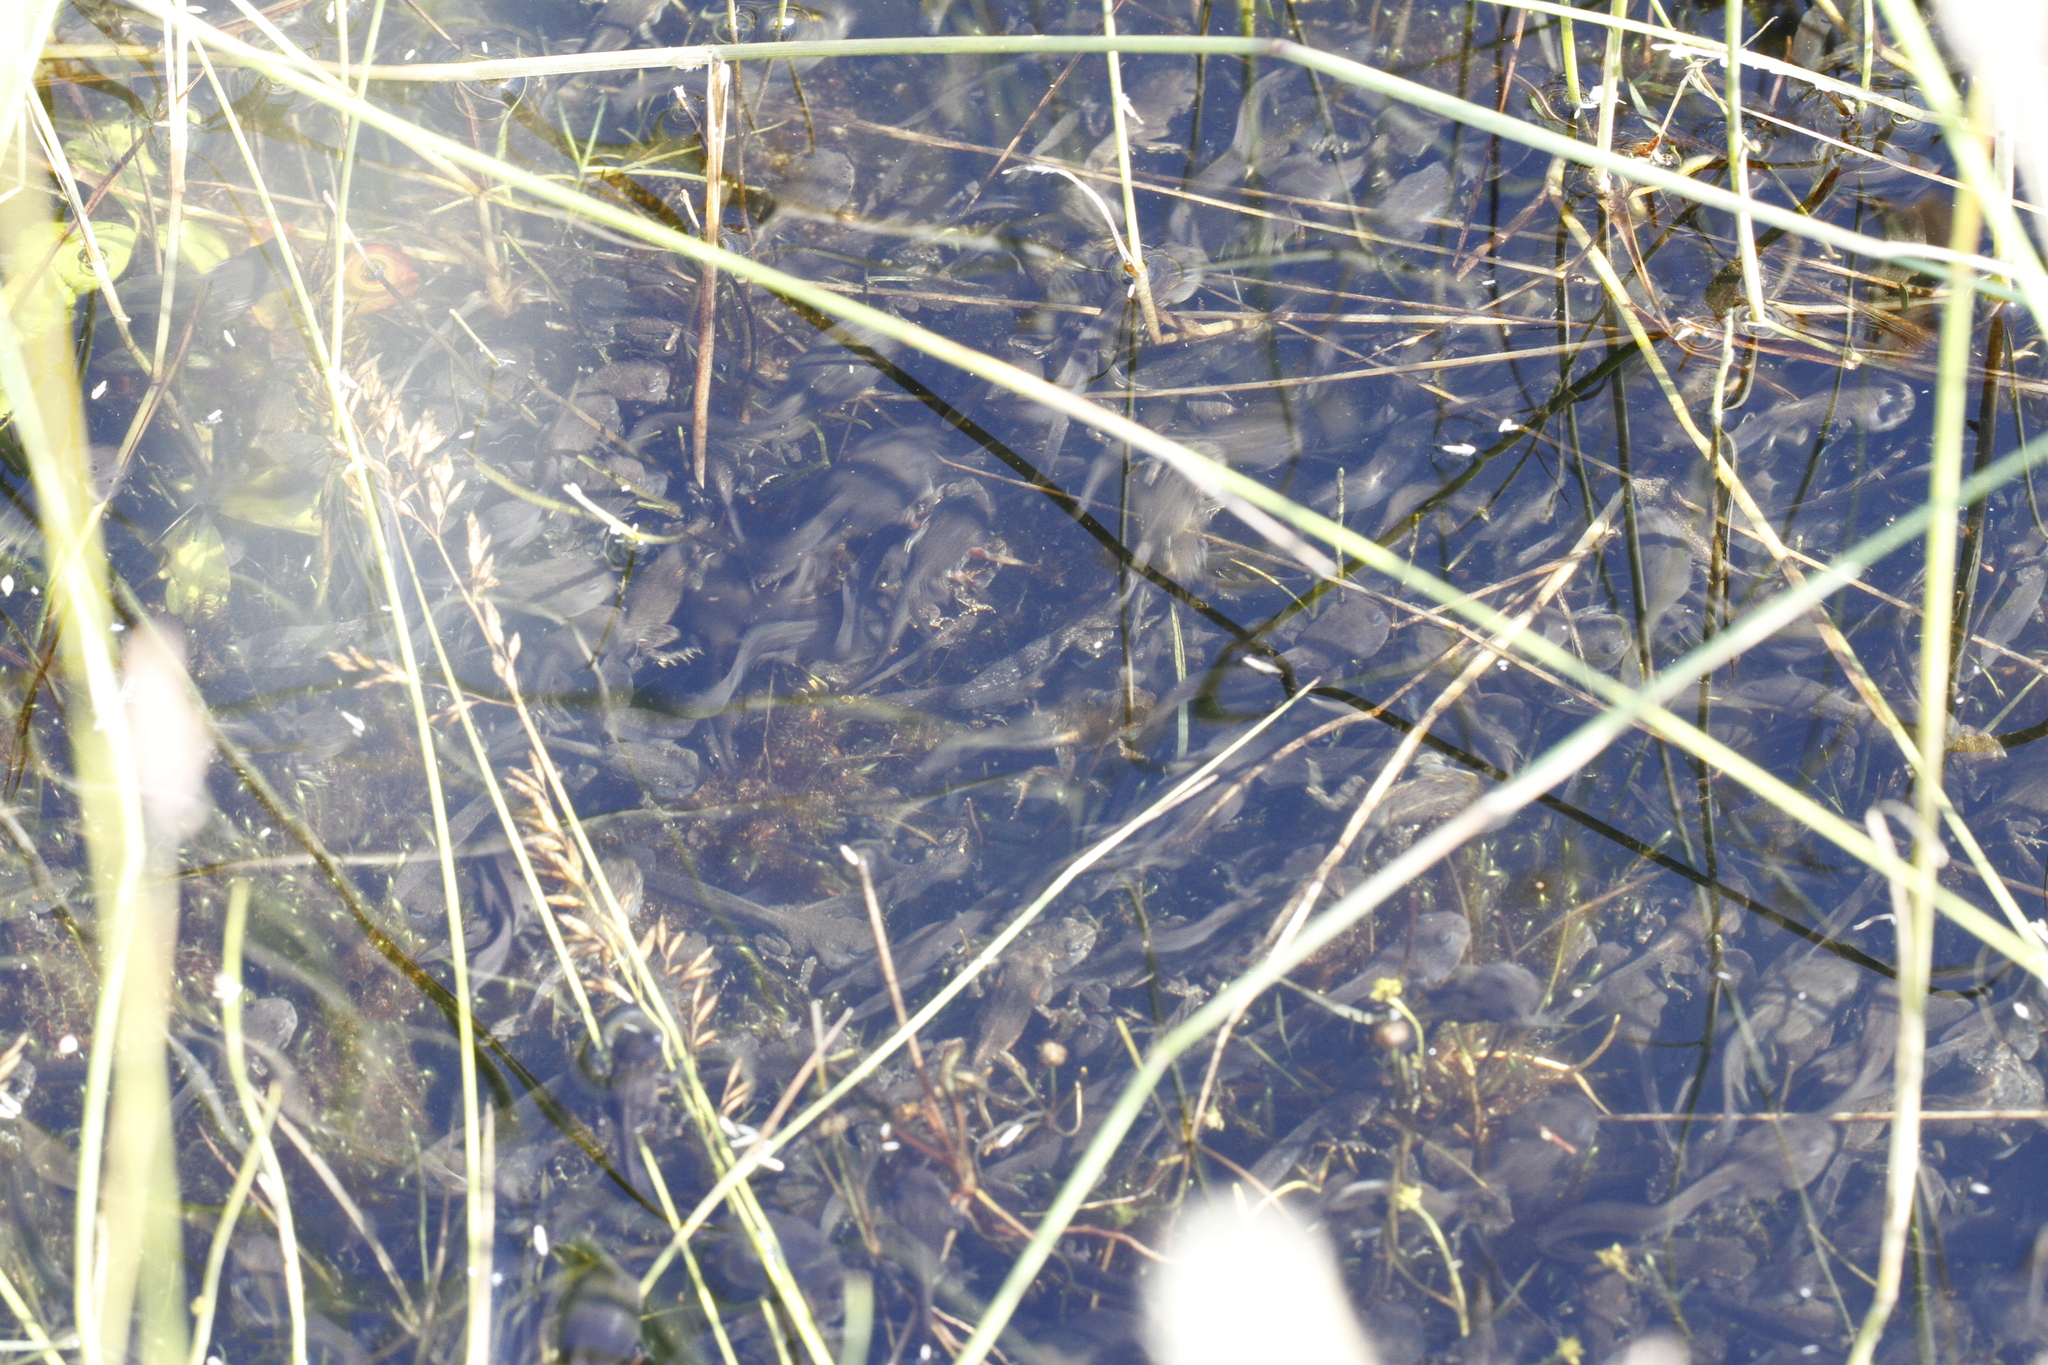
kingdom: Animalia
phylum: Chordata
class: Amphibia
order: Anura
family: Bufonidae
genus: Anaxyrus
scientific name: Anaxyrus boreas
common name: Western toad
